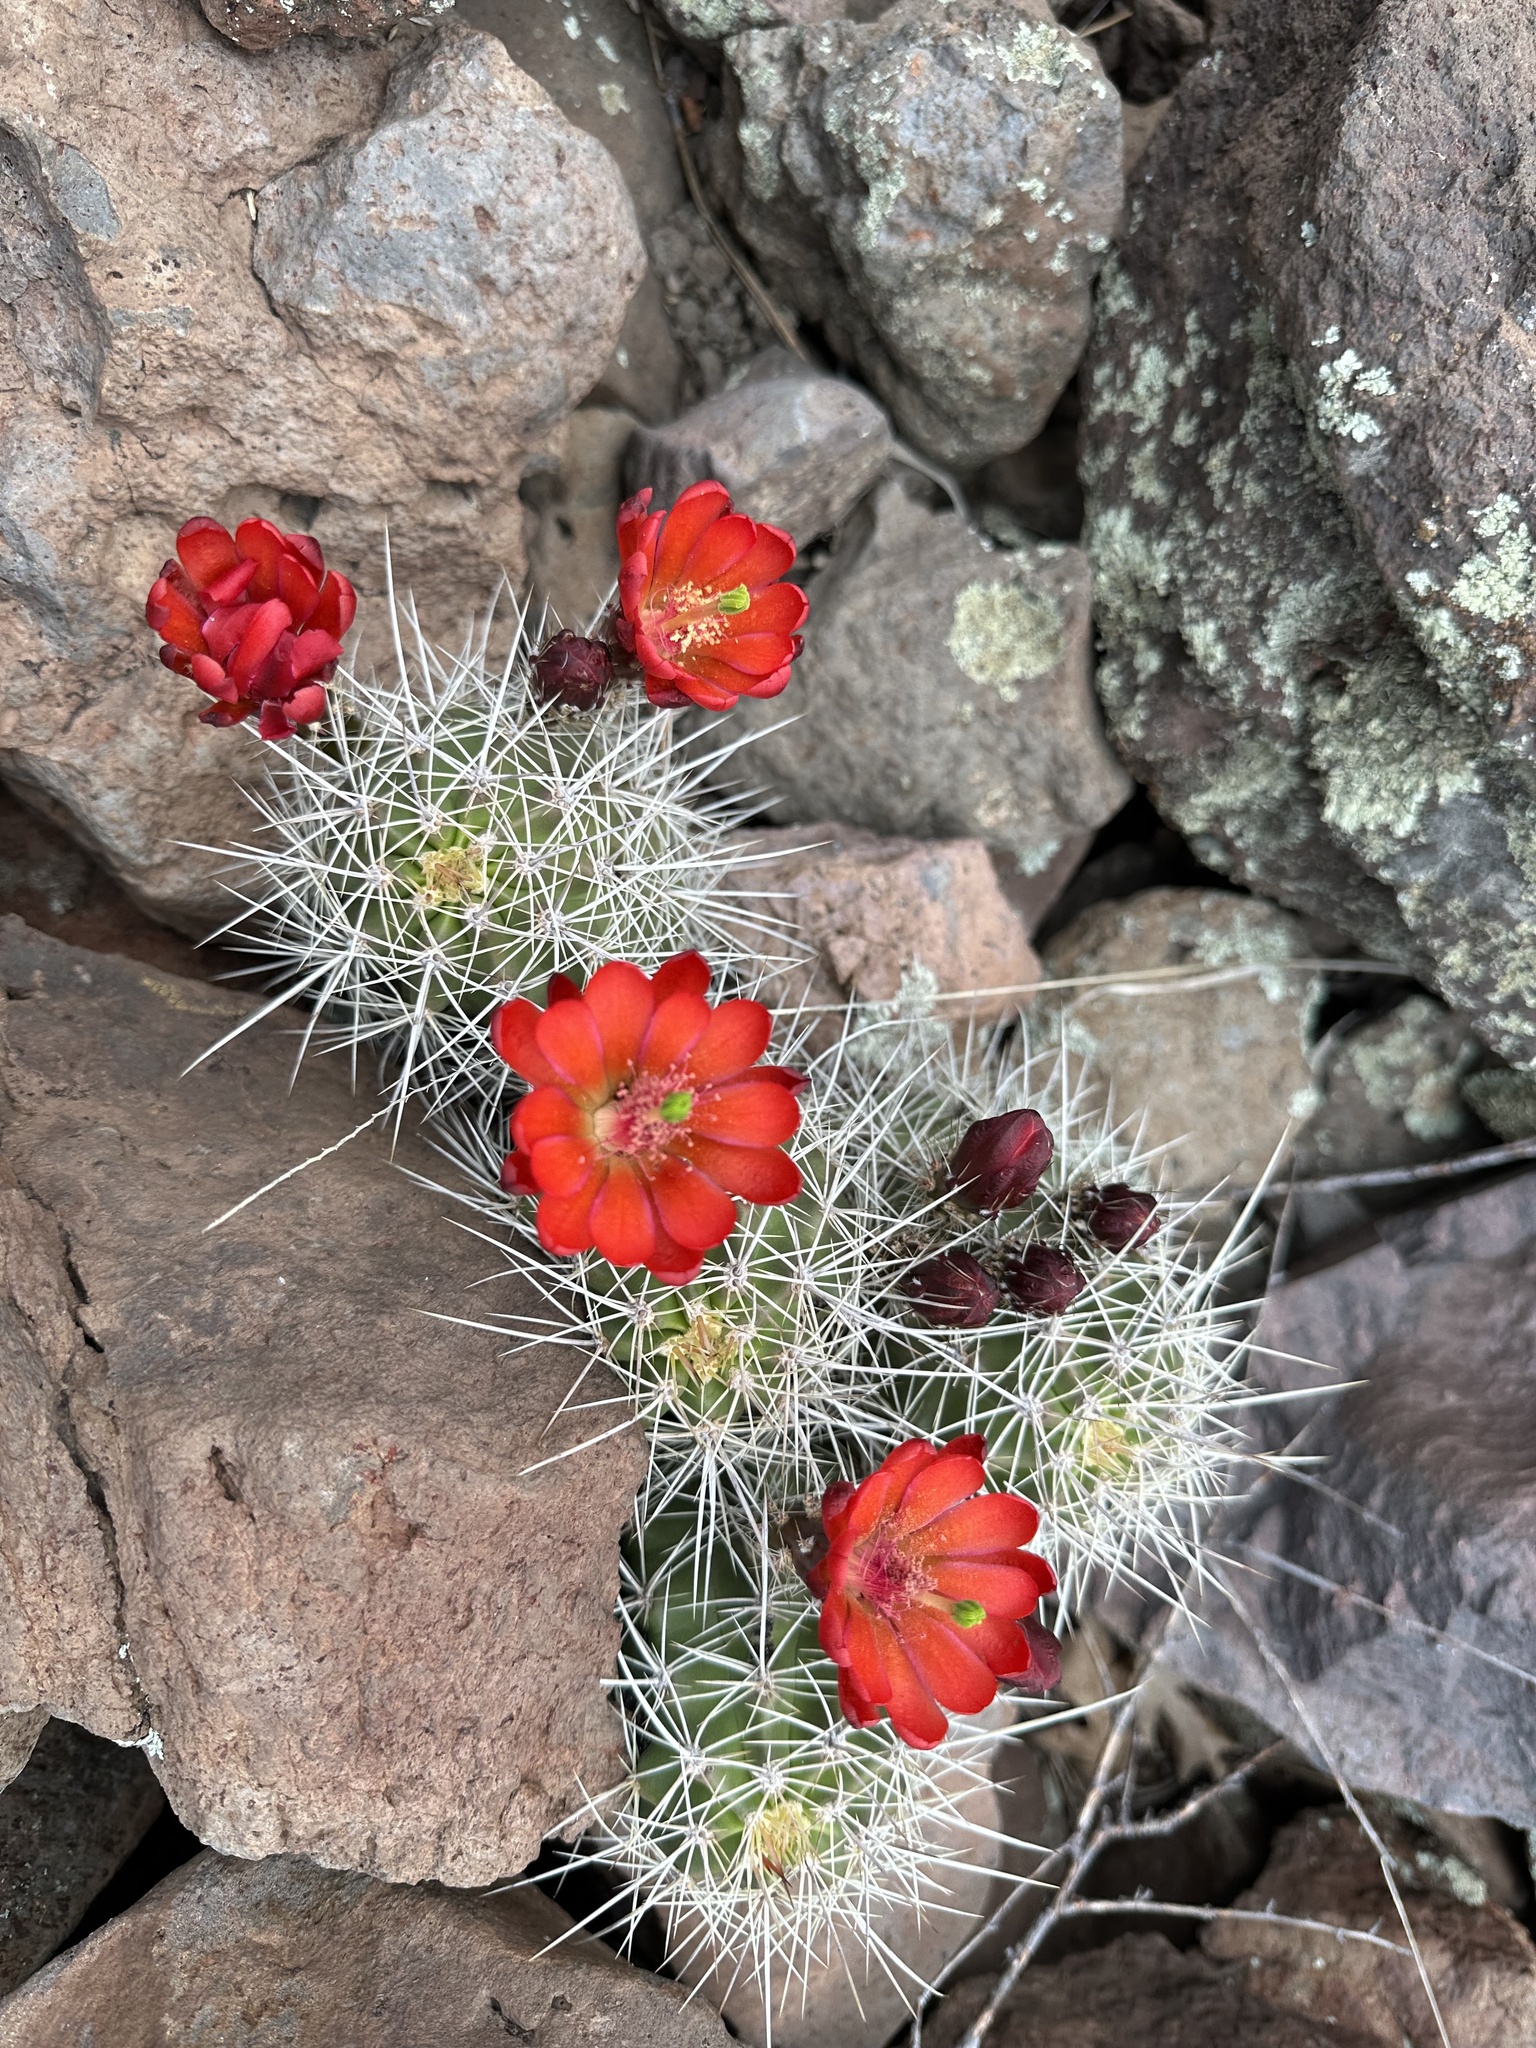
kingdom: Plantae
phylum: Tracheophyta
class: Magnoliopsida
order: Caryophyllales
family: Cactaceae
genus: Echinocereus
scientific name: Echinocereus bakeri
